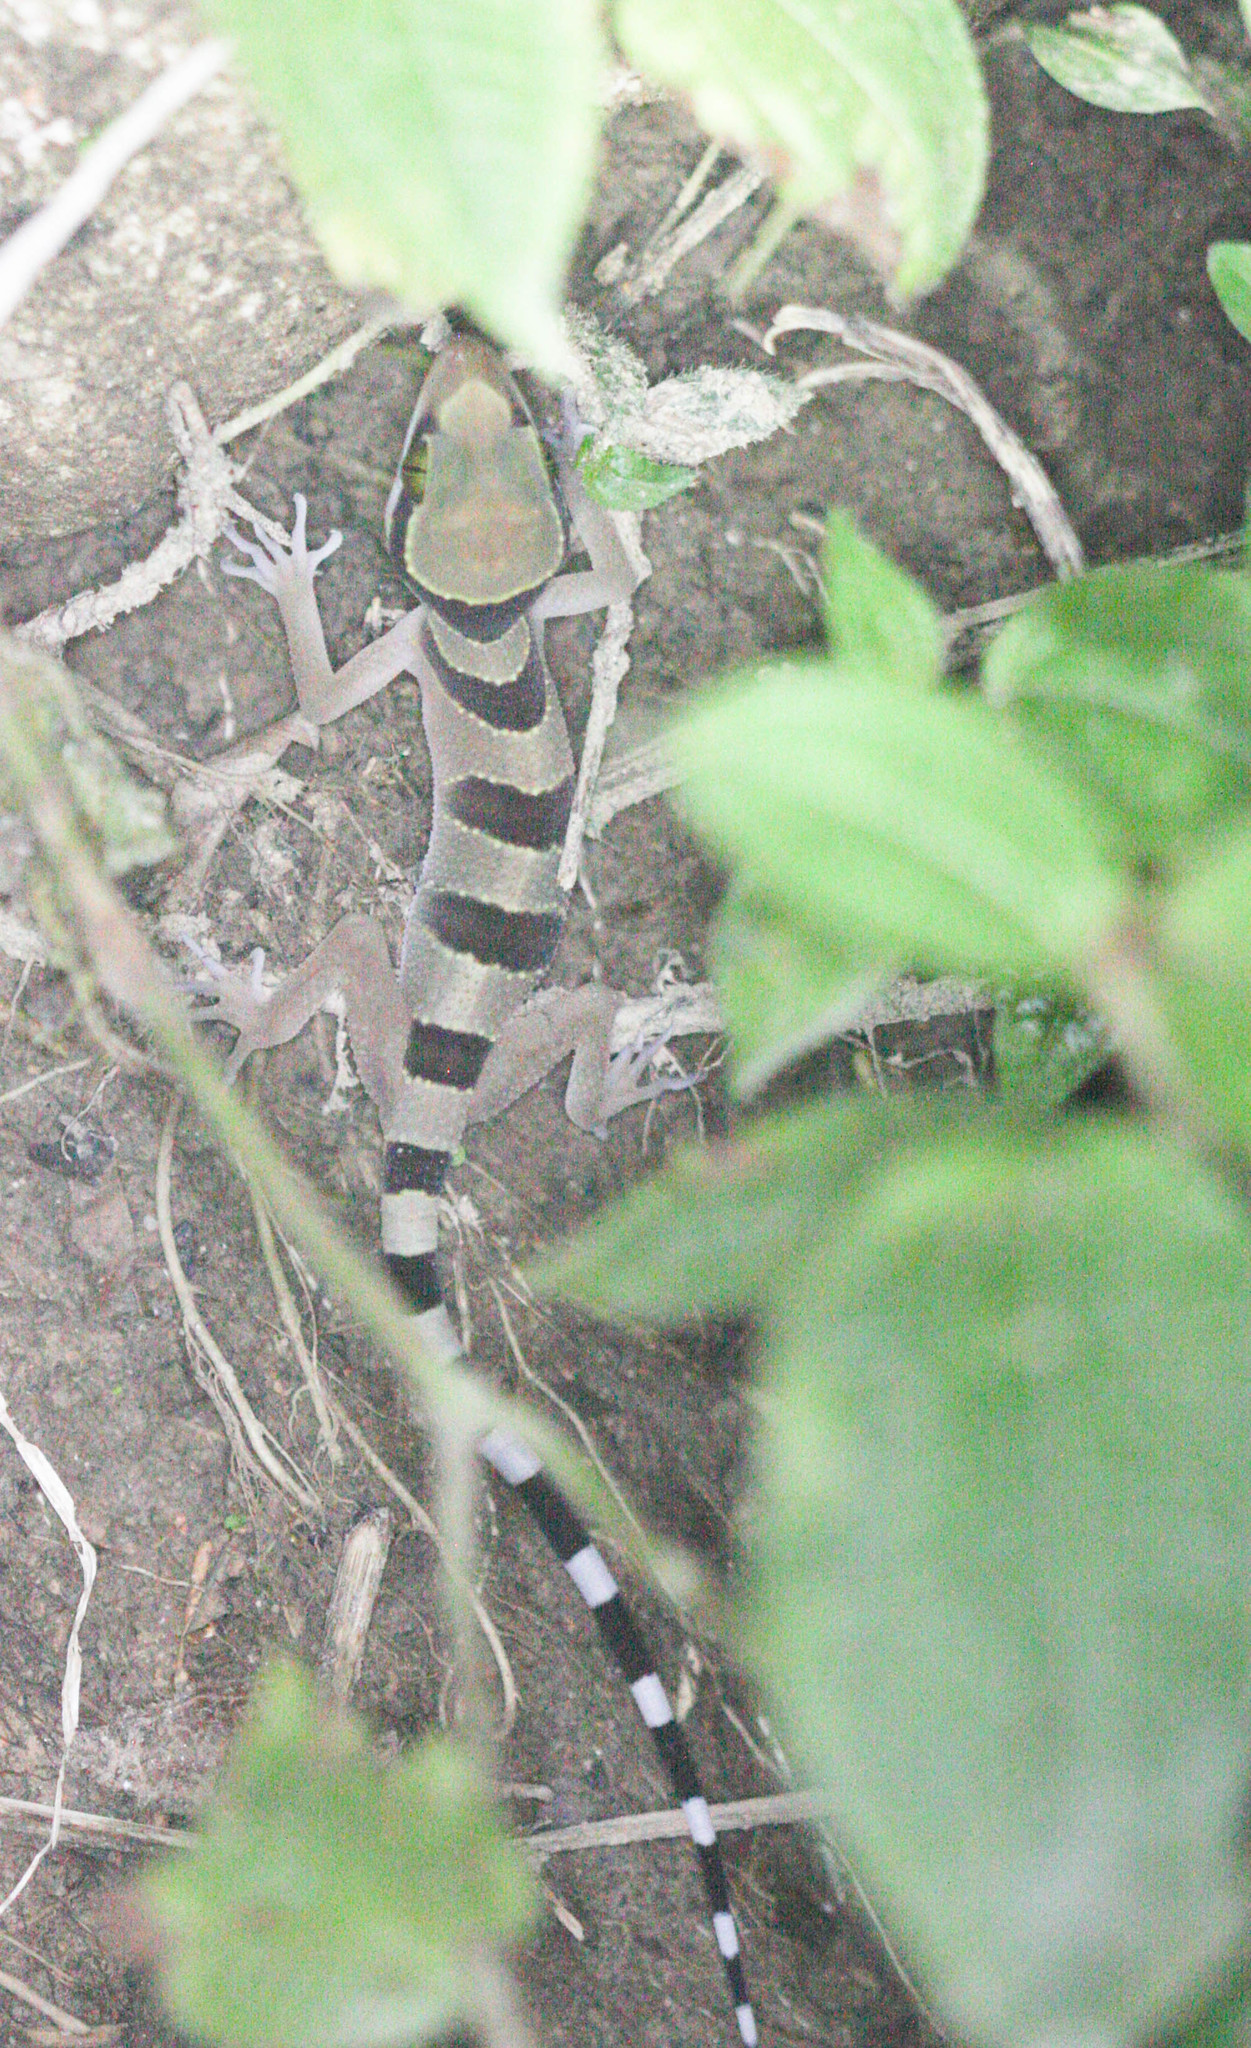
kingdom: Animalia
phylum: Chordata
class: Squamata
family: Gekkonidae
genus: Cyrtodactylus
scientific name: Cyrtodactylus pulchellus
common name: Banded bent-toed gecko
